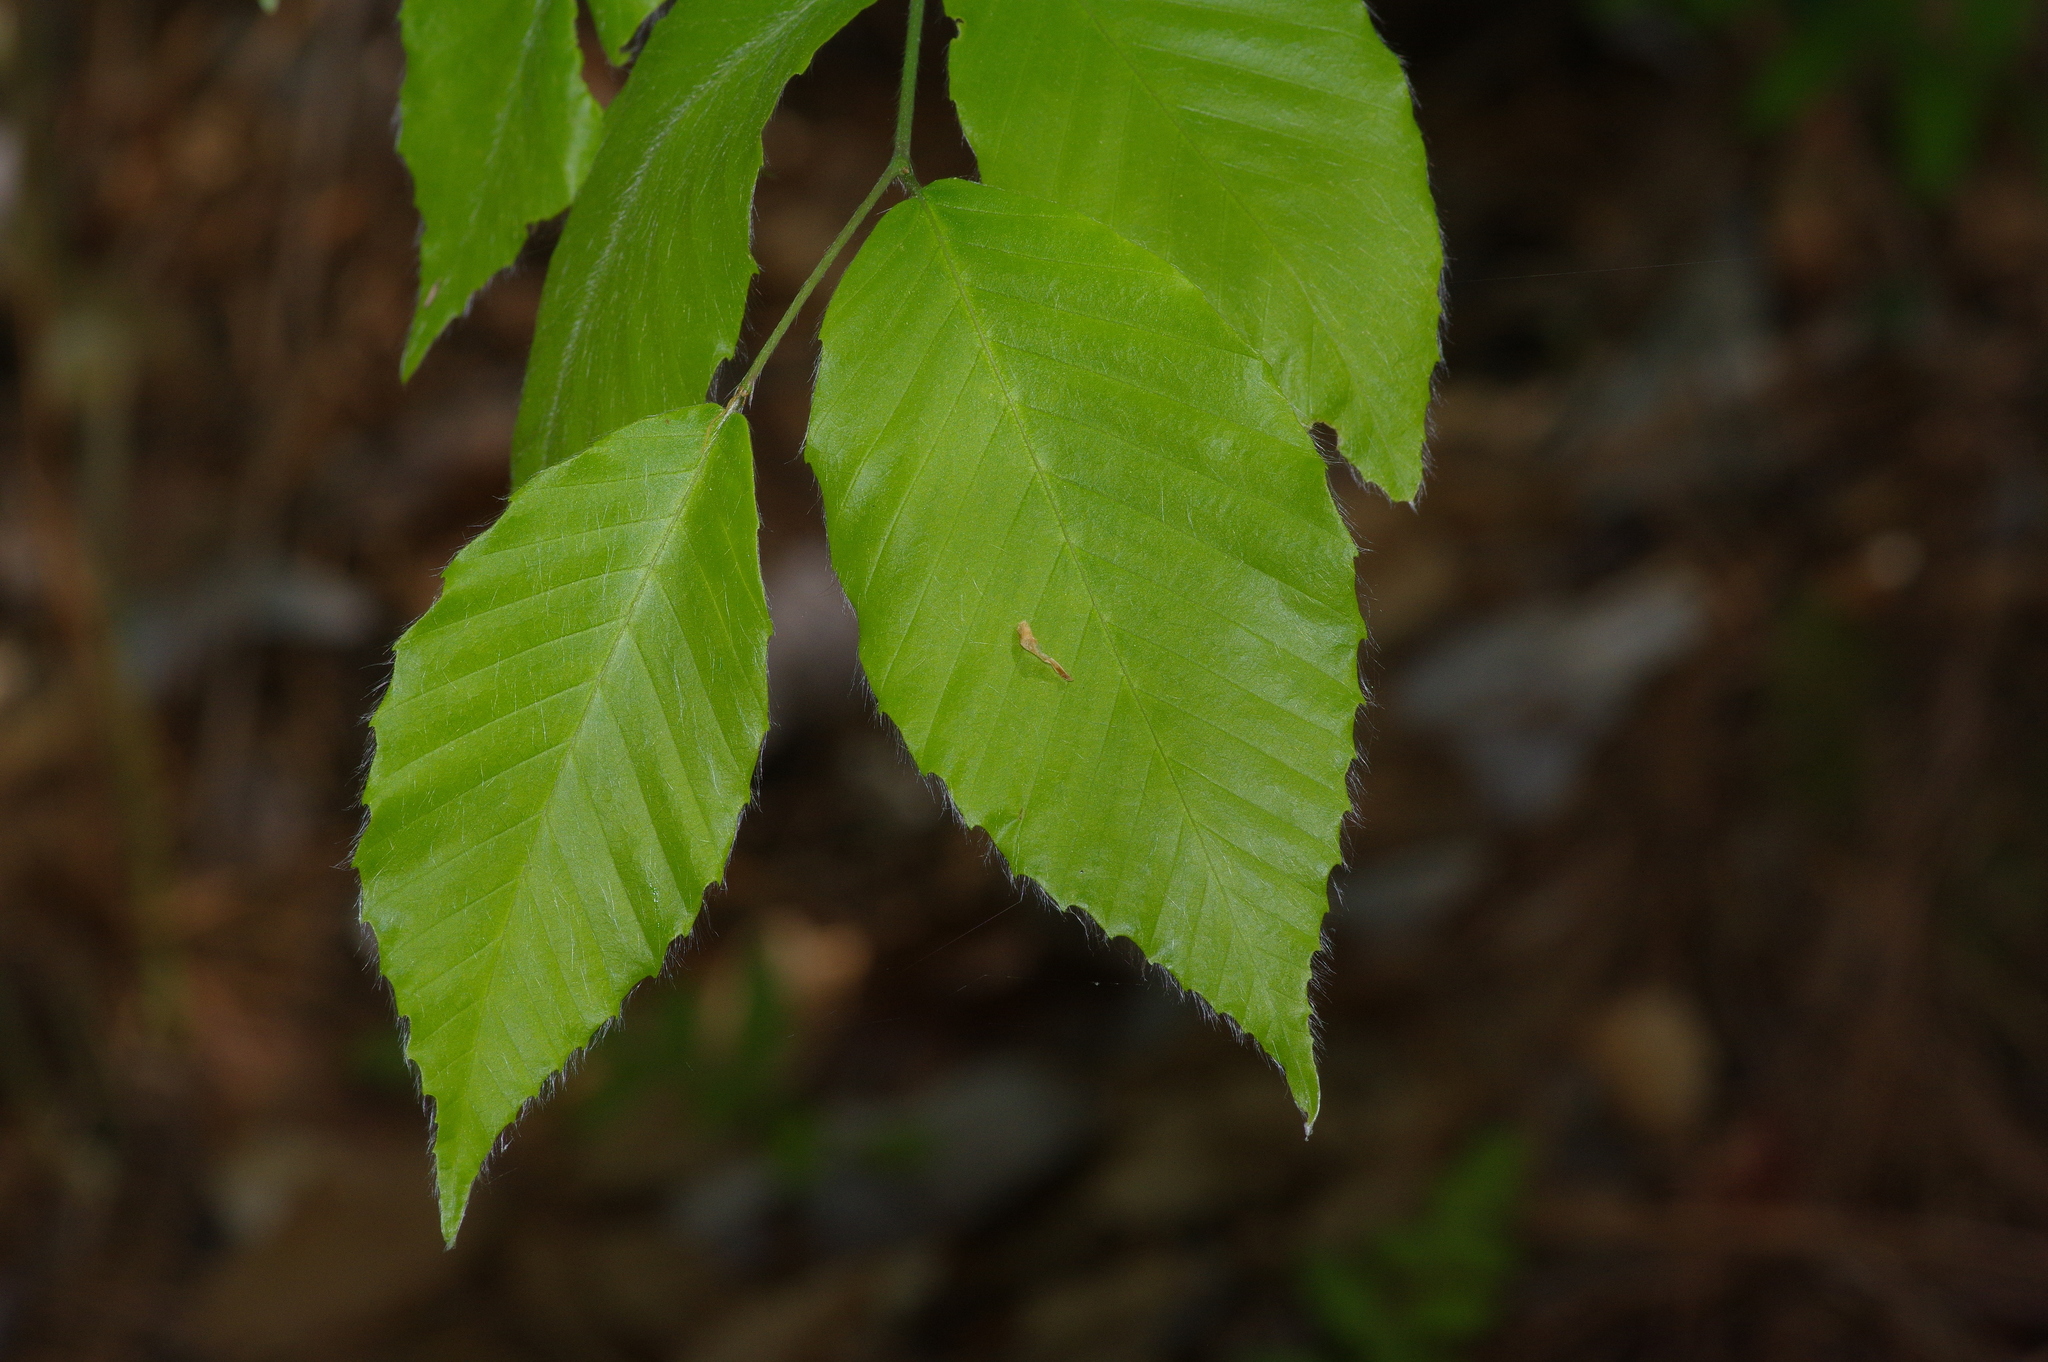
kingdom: Plantae
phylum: Tracheophyta
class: Magnoliopsida
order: Fagales
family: Fagaceae
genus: Fagus
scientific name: Fagus grandifolia
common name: American beech
